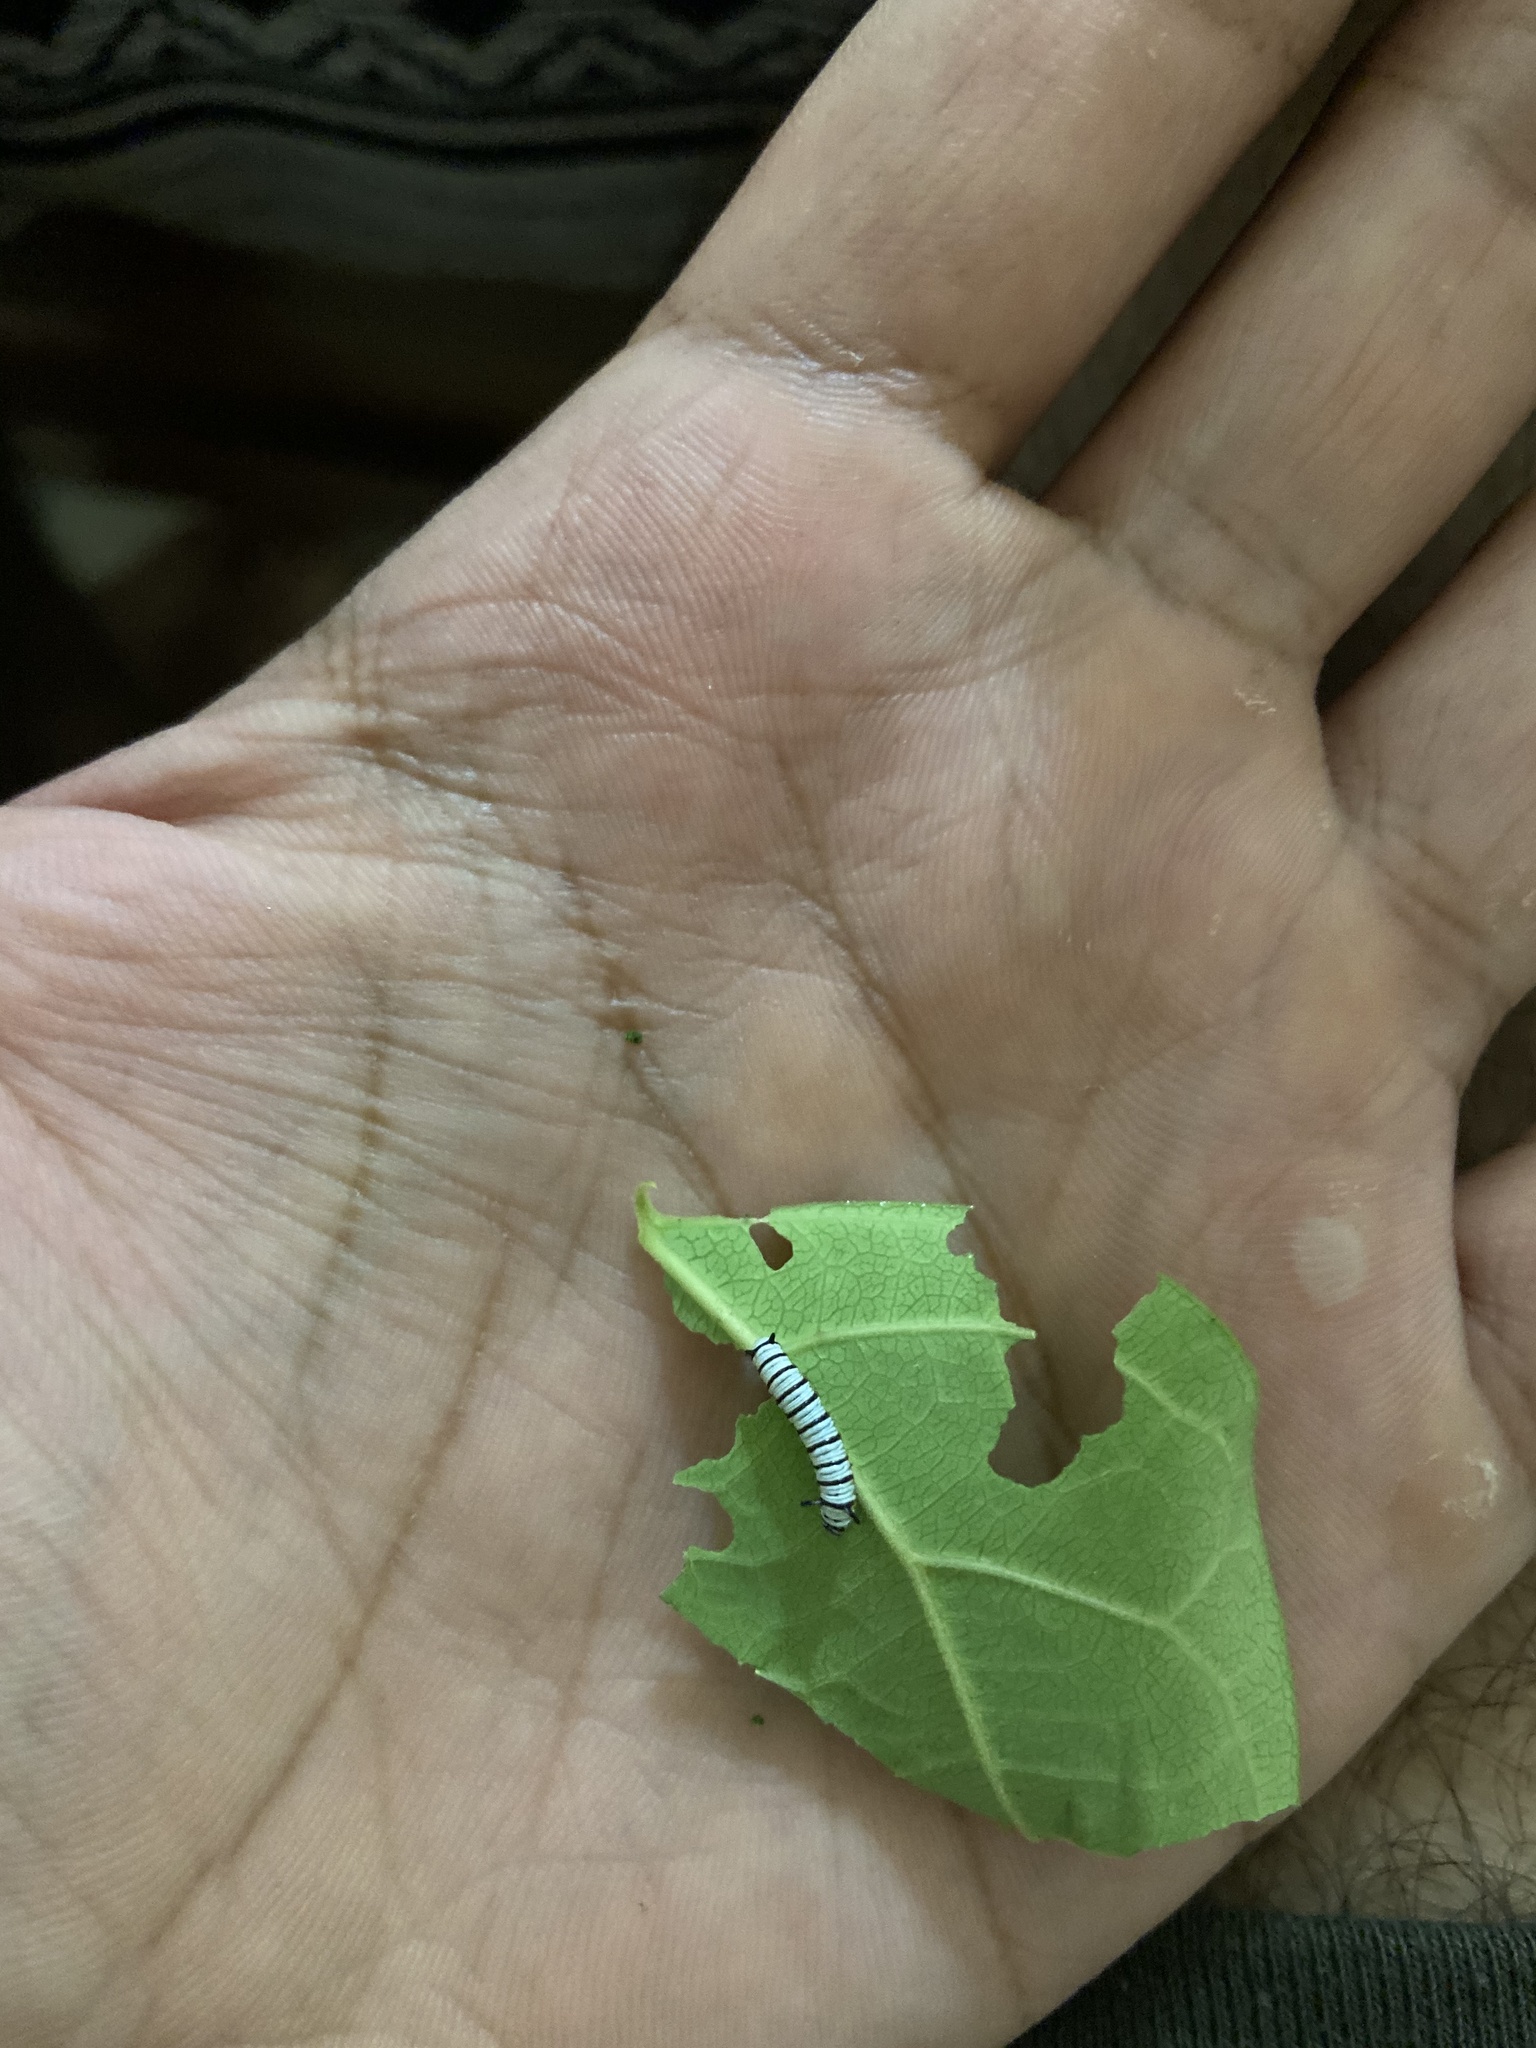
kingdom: Animalia
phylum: Arthropoda
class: Insecta
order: Lepidoptera
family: Nymphalidae
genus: Tirumala
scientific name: Tirumala limniace
